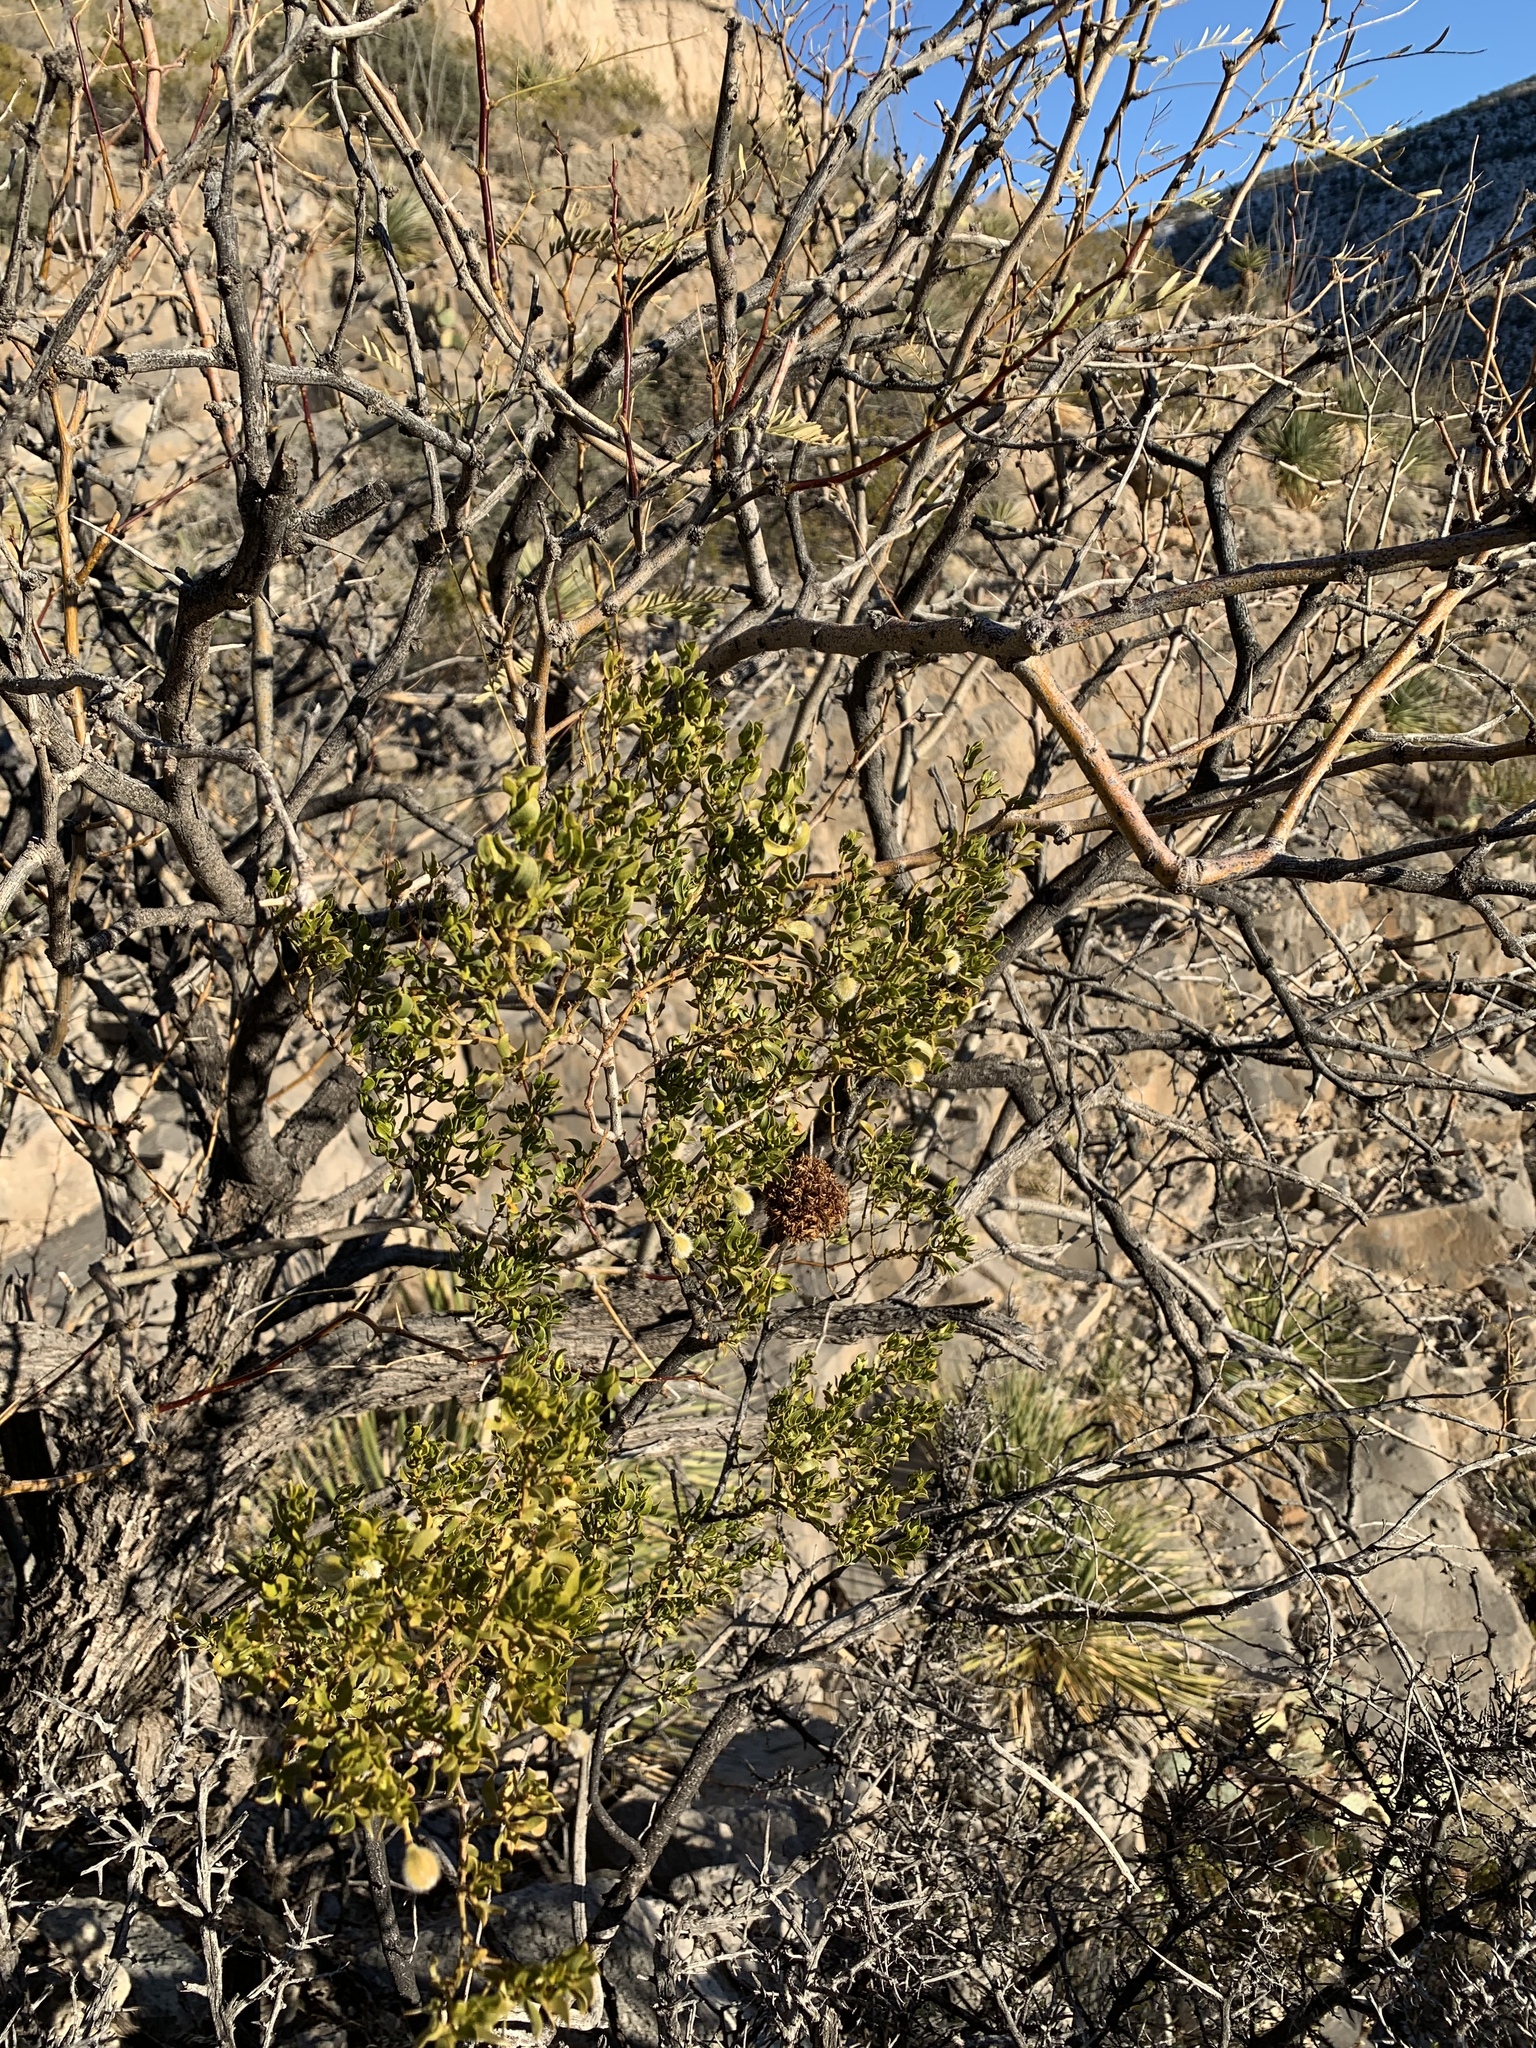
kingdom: Plantae
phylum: Tracheophyta
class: Magnoliopsida
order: Zygophyllales
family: Zygophyllaceae
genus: Larrea
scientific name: Larrea tridentata
